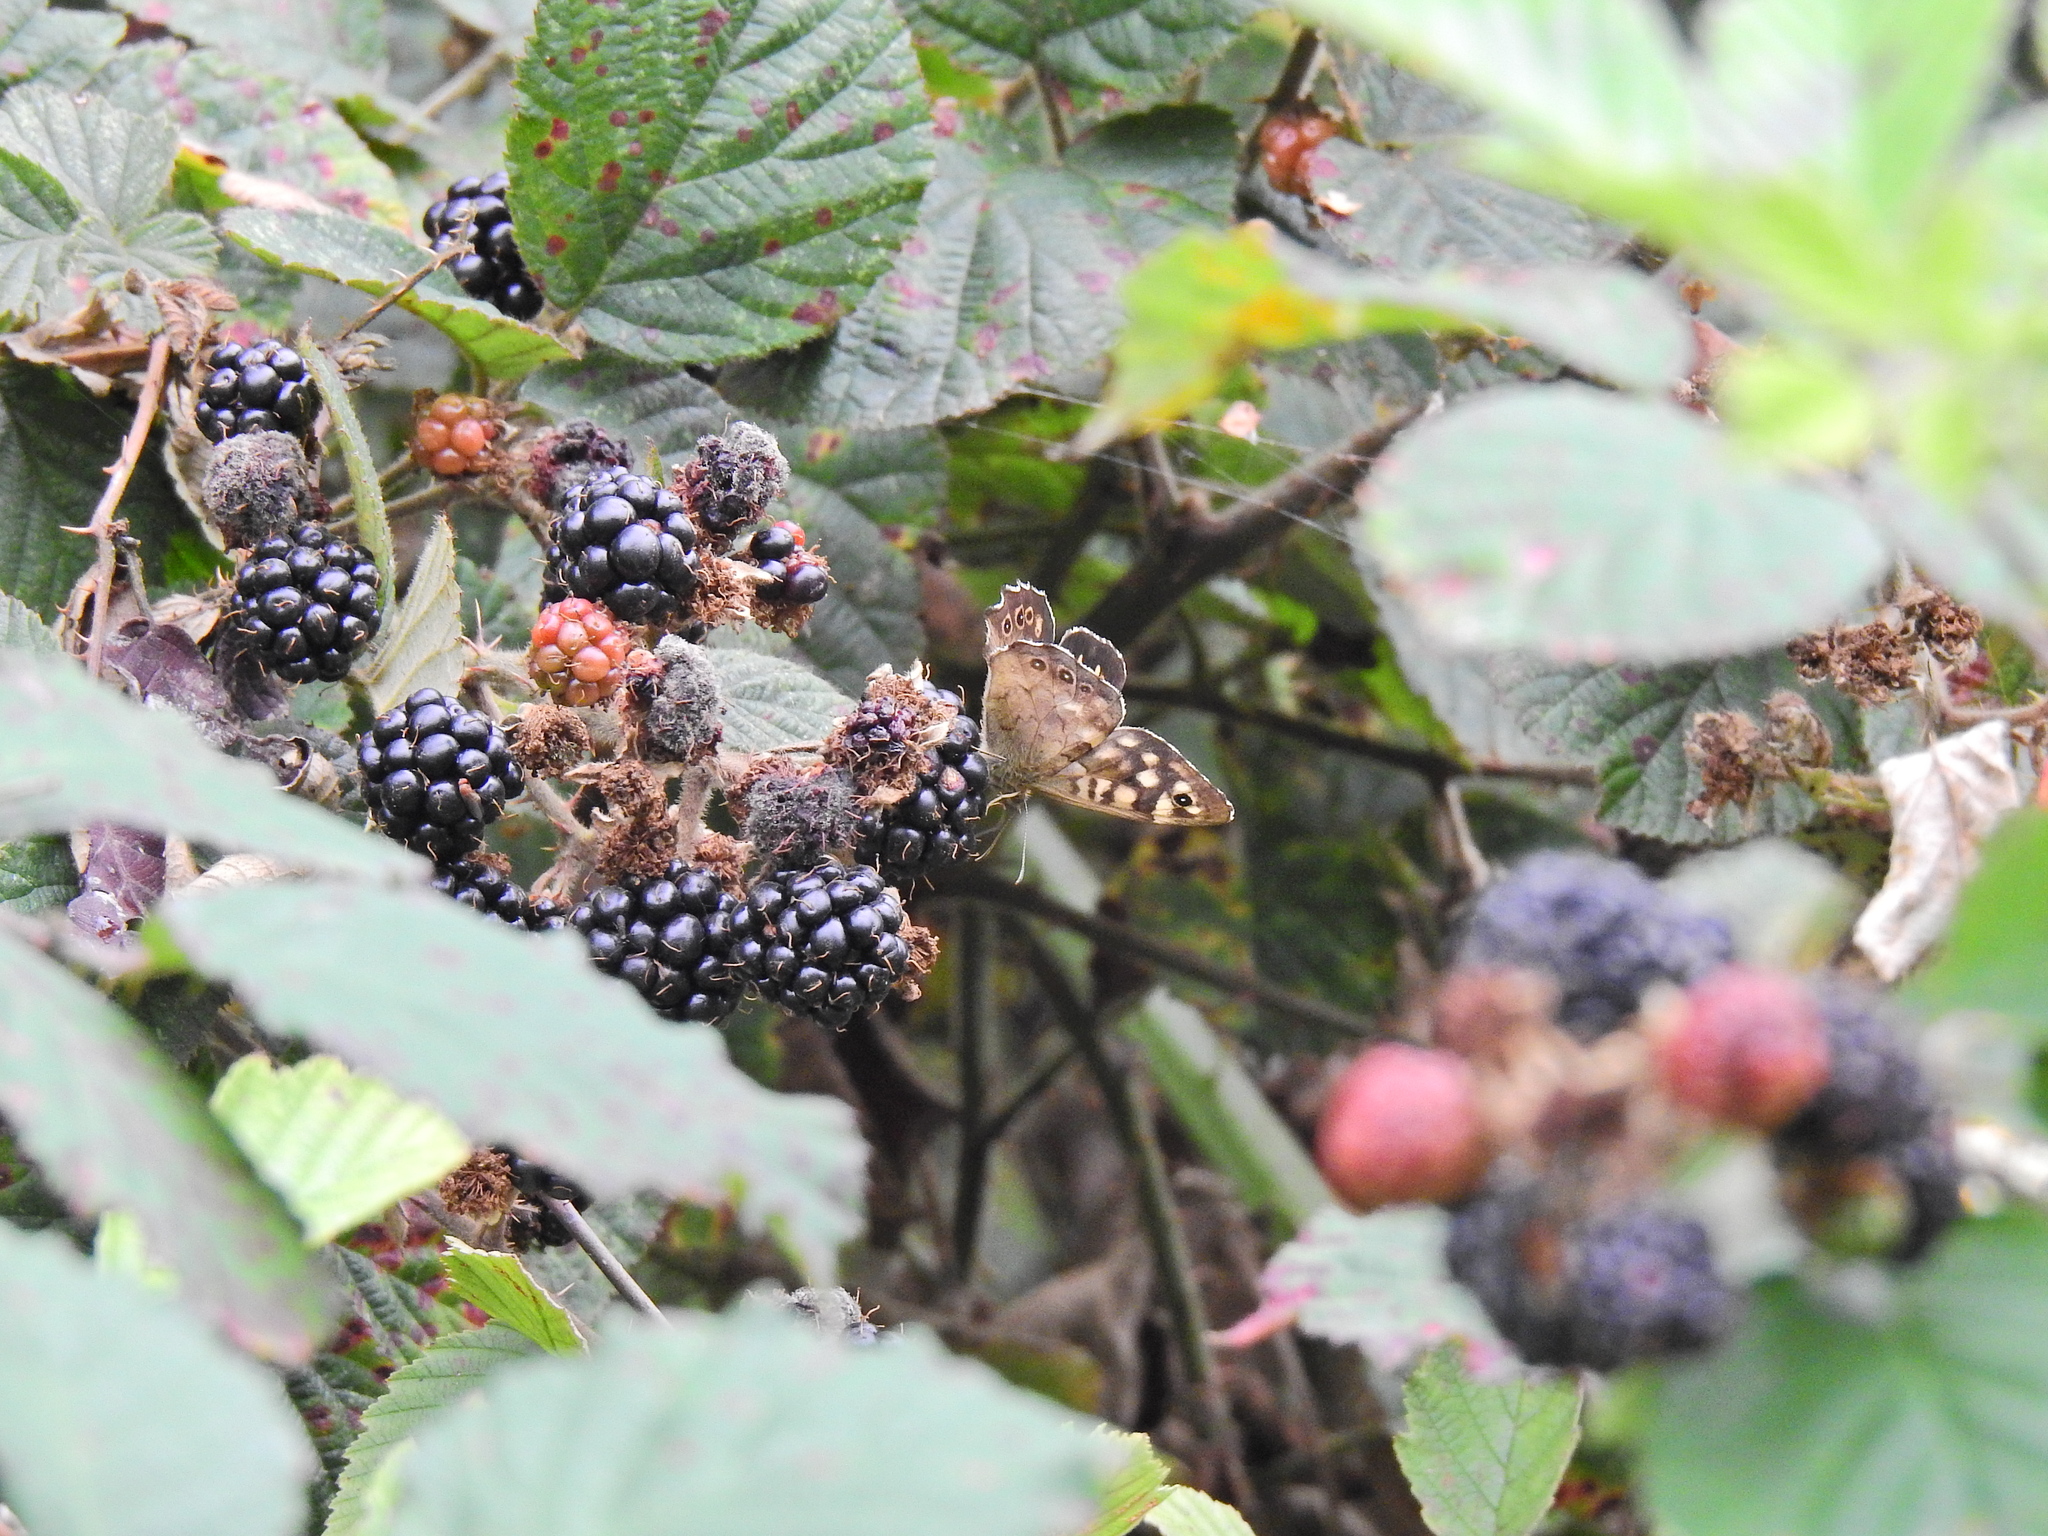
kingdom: Animalia
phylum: Arthropoda
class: Insecta
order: Lepidoptera
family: Nymphalidae
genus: Pararge
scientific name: Pararge aegeria
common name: Speckled wood
